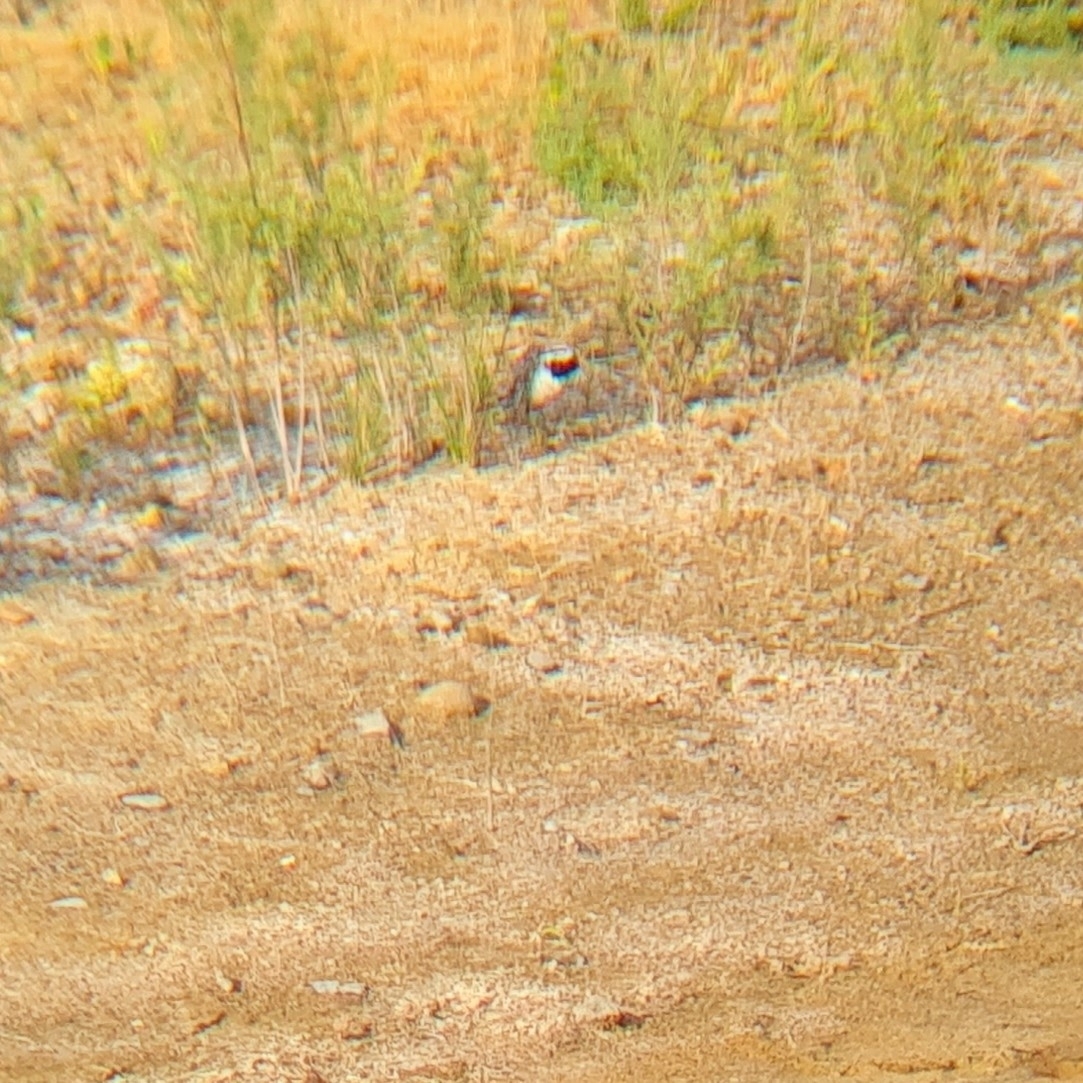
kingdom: Animalia
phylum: Chordata
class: Aves
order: Passeriformes
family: Motacillidae
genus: Motacilla
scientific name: Motacilla alba
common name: White wagtail
